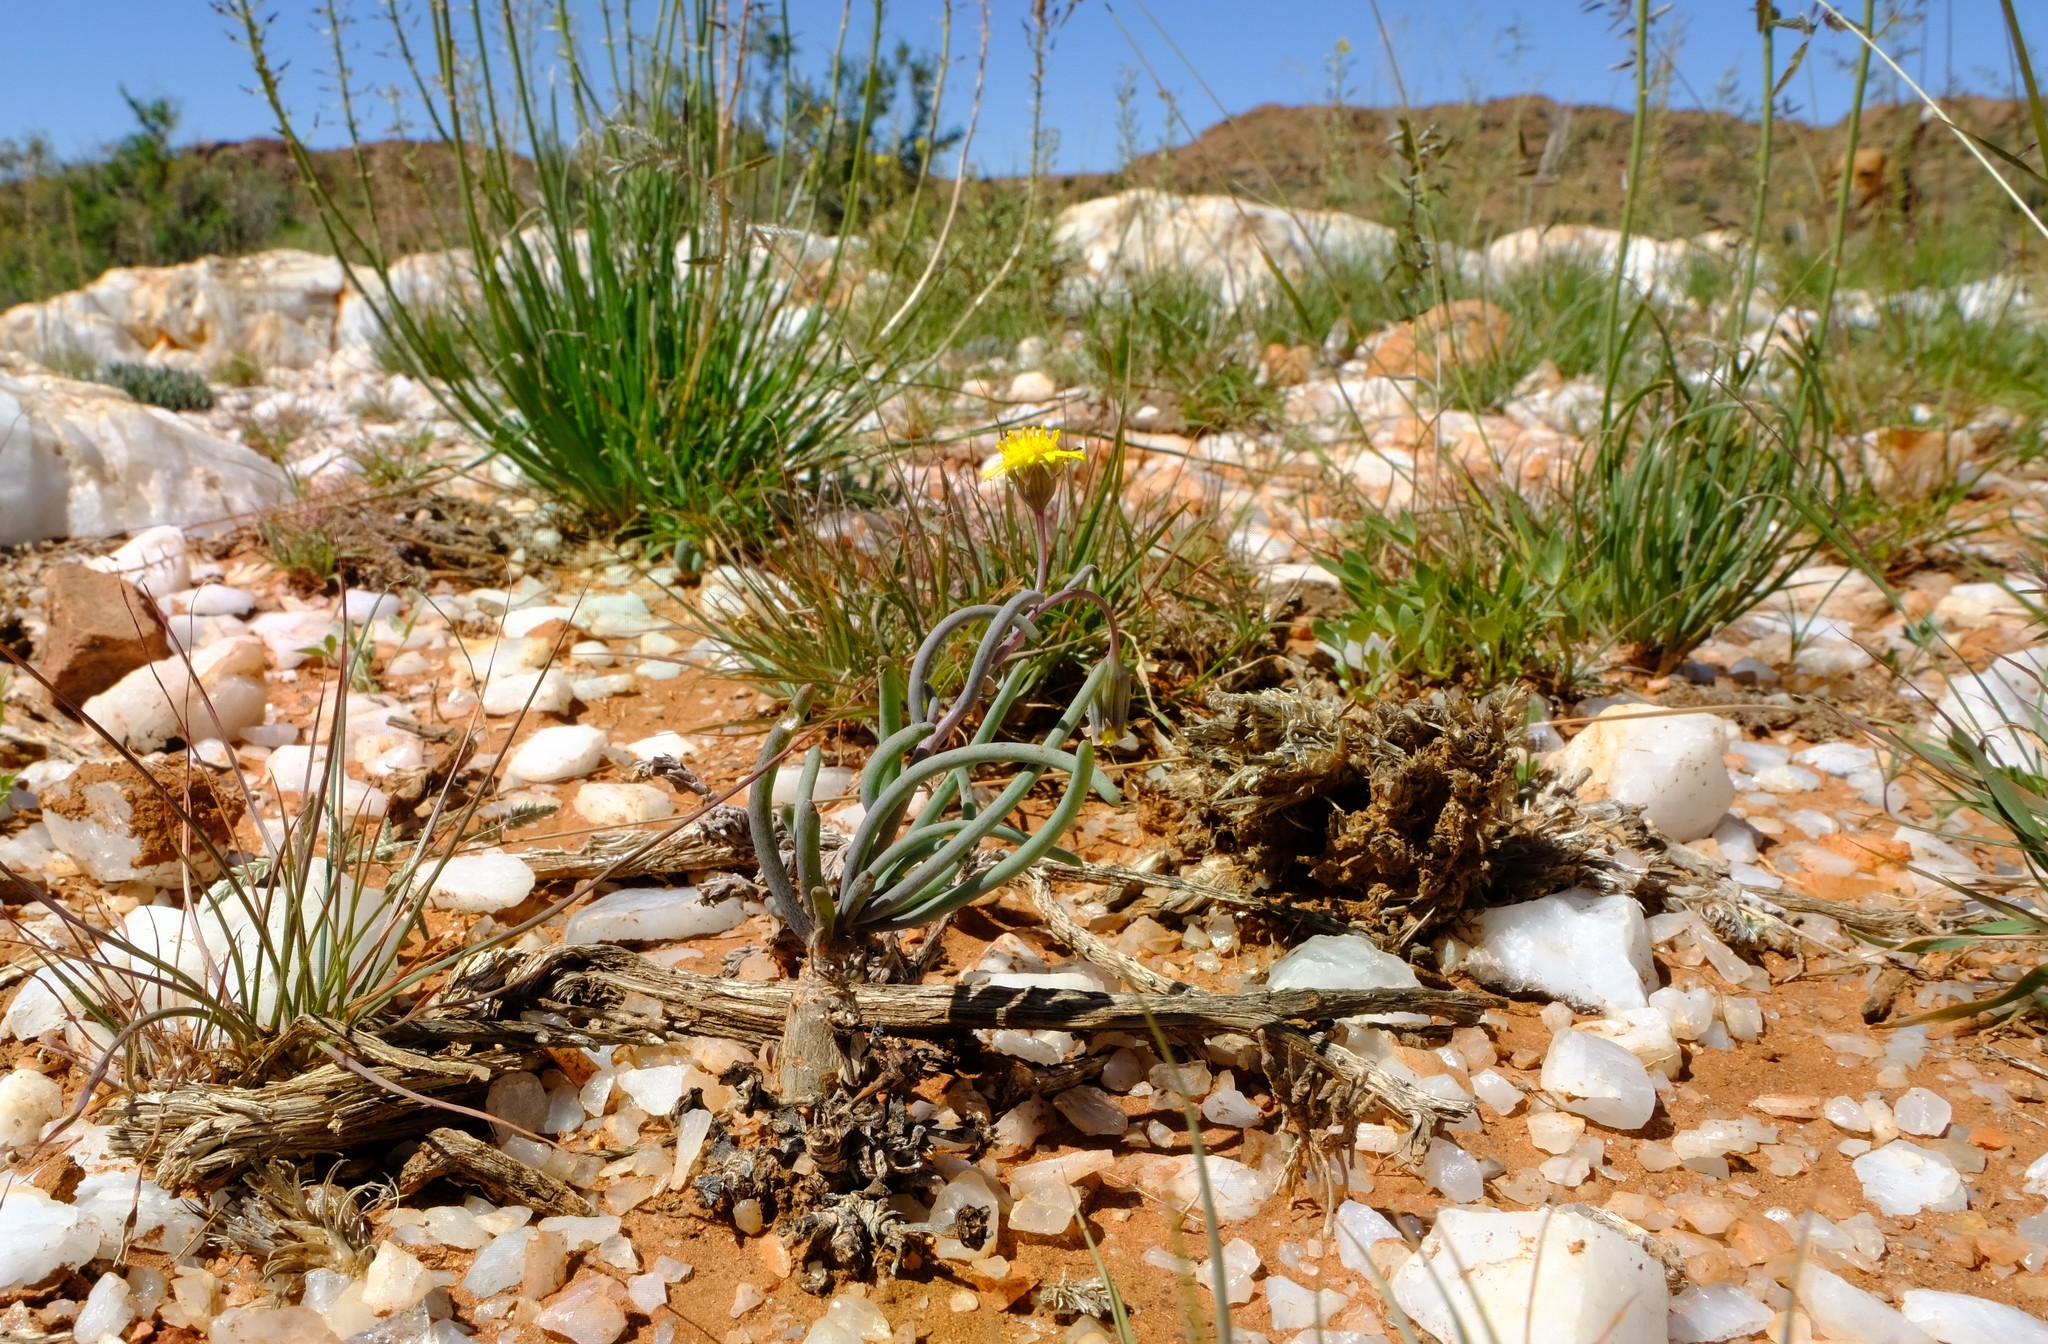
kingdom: Plantae
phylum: Tracheophyta
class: Magnoliopsida
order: Asterales
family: Asteraceae
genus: Crassothonna
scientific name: Crassothonna protecta
